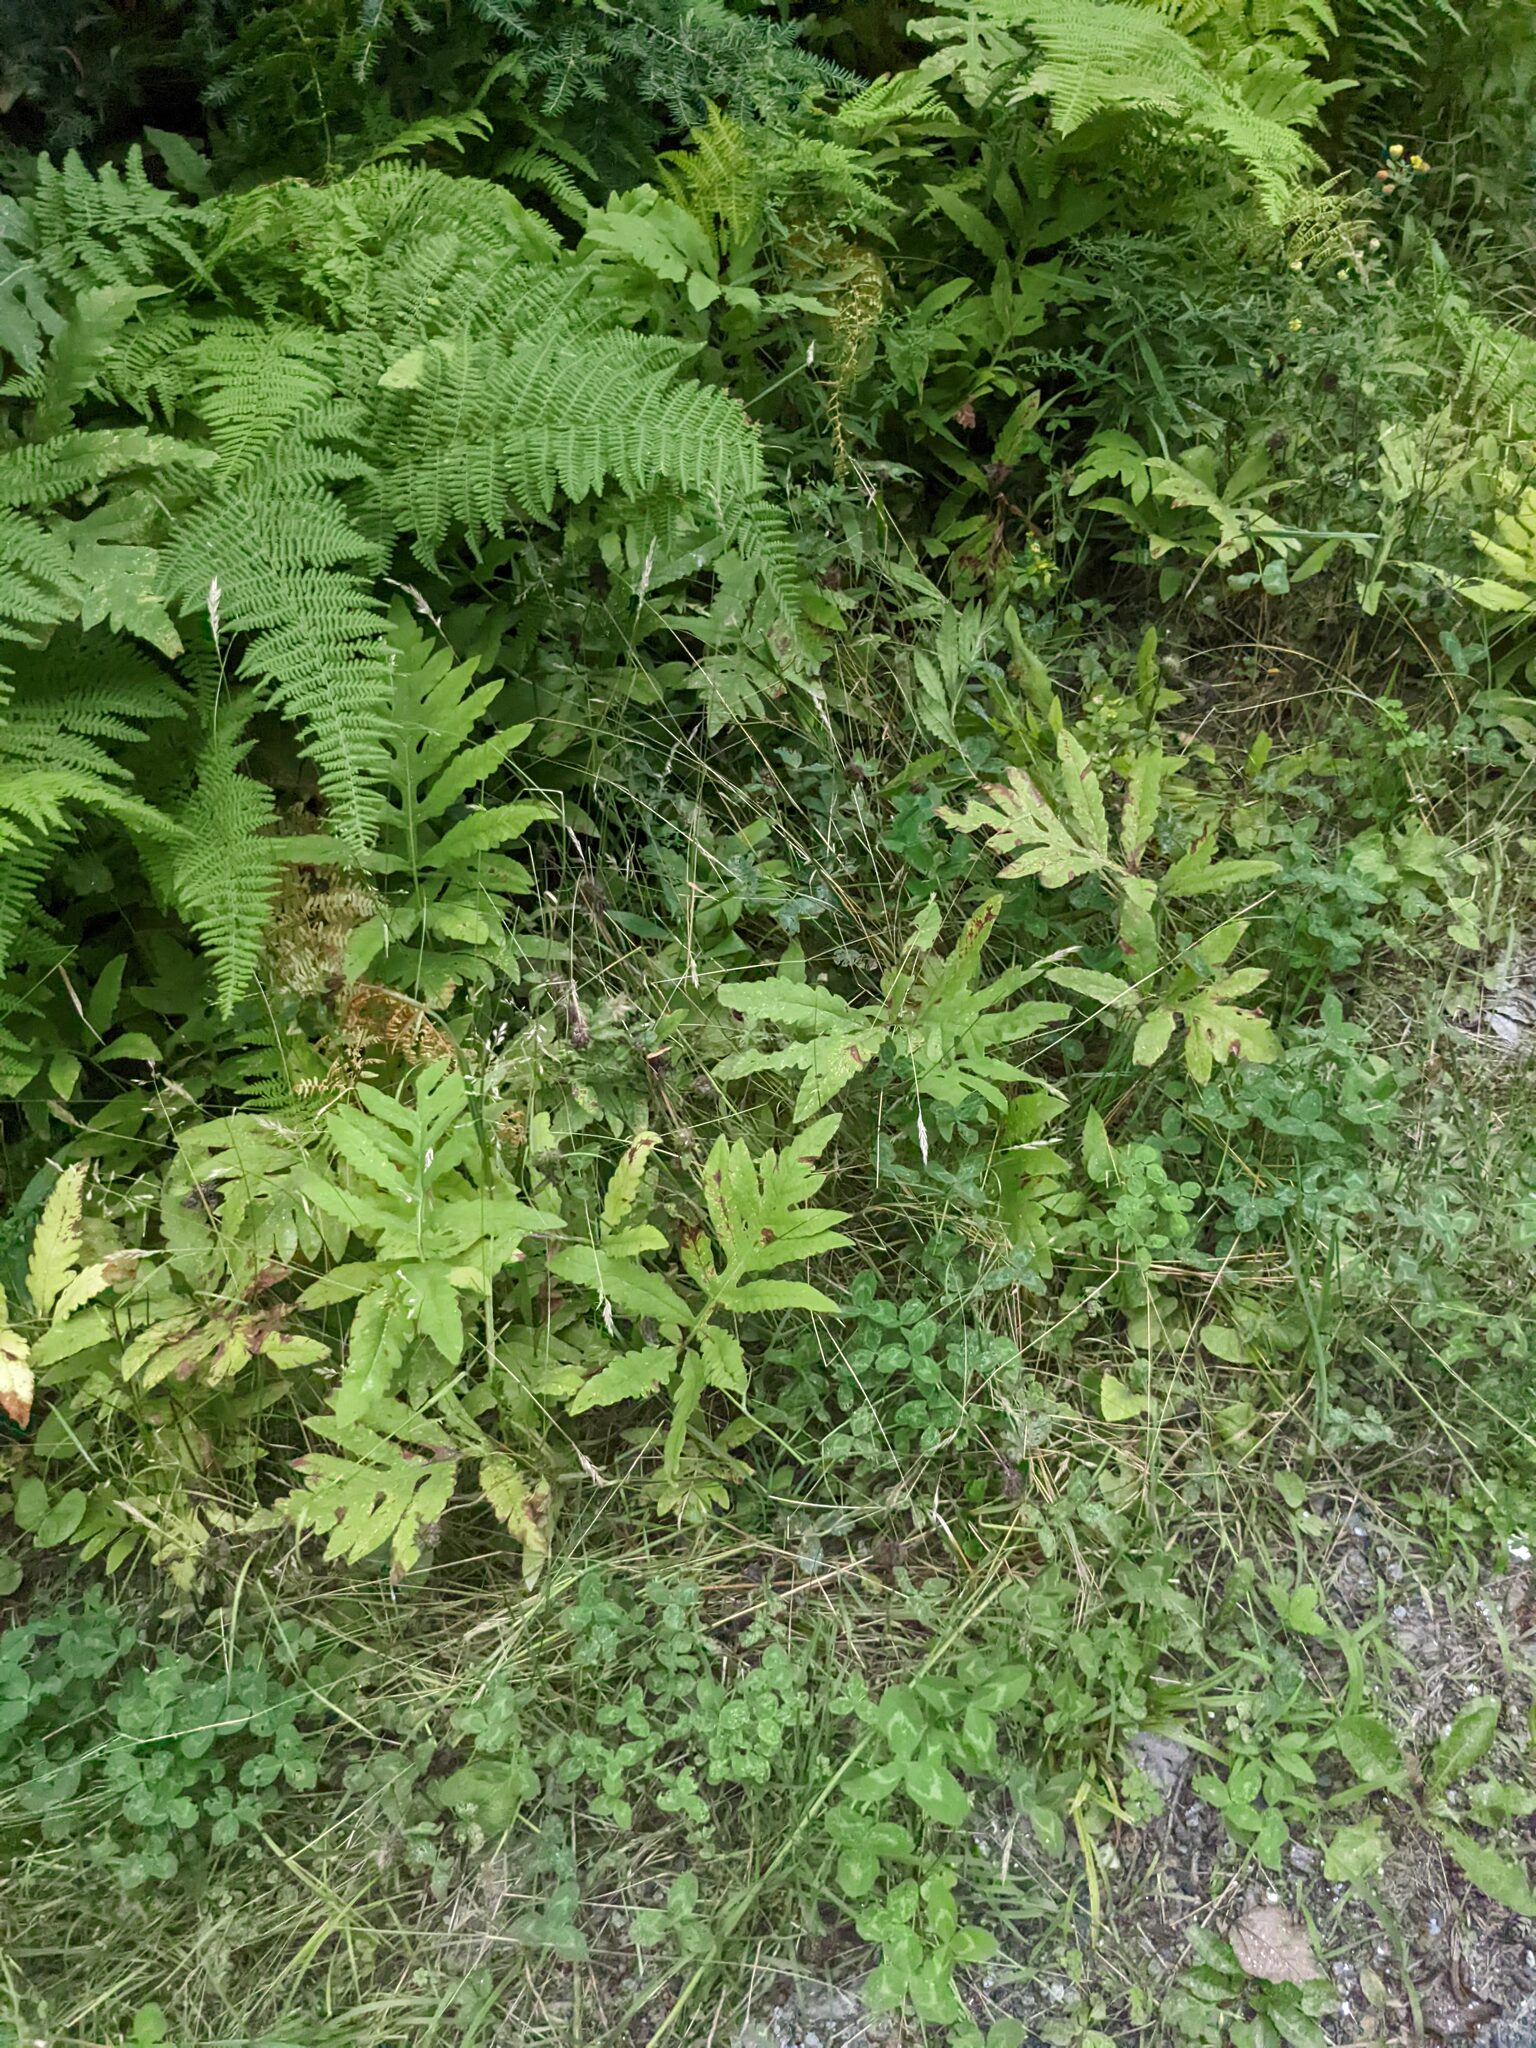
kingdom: Plantae
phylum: Tracheophyta
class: Polypodiopsida
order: Polypodiales
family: Onocleaceae
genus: Onoclea
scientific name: Onoclea sensibilis
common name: Sensitive fern
